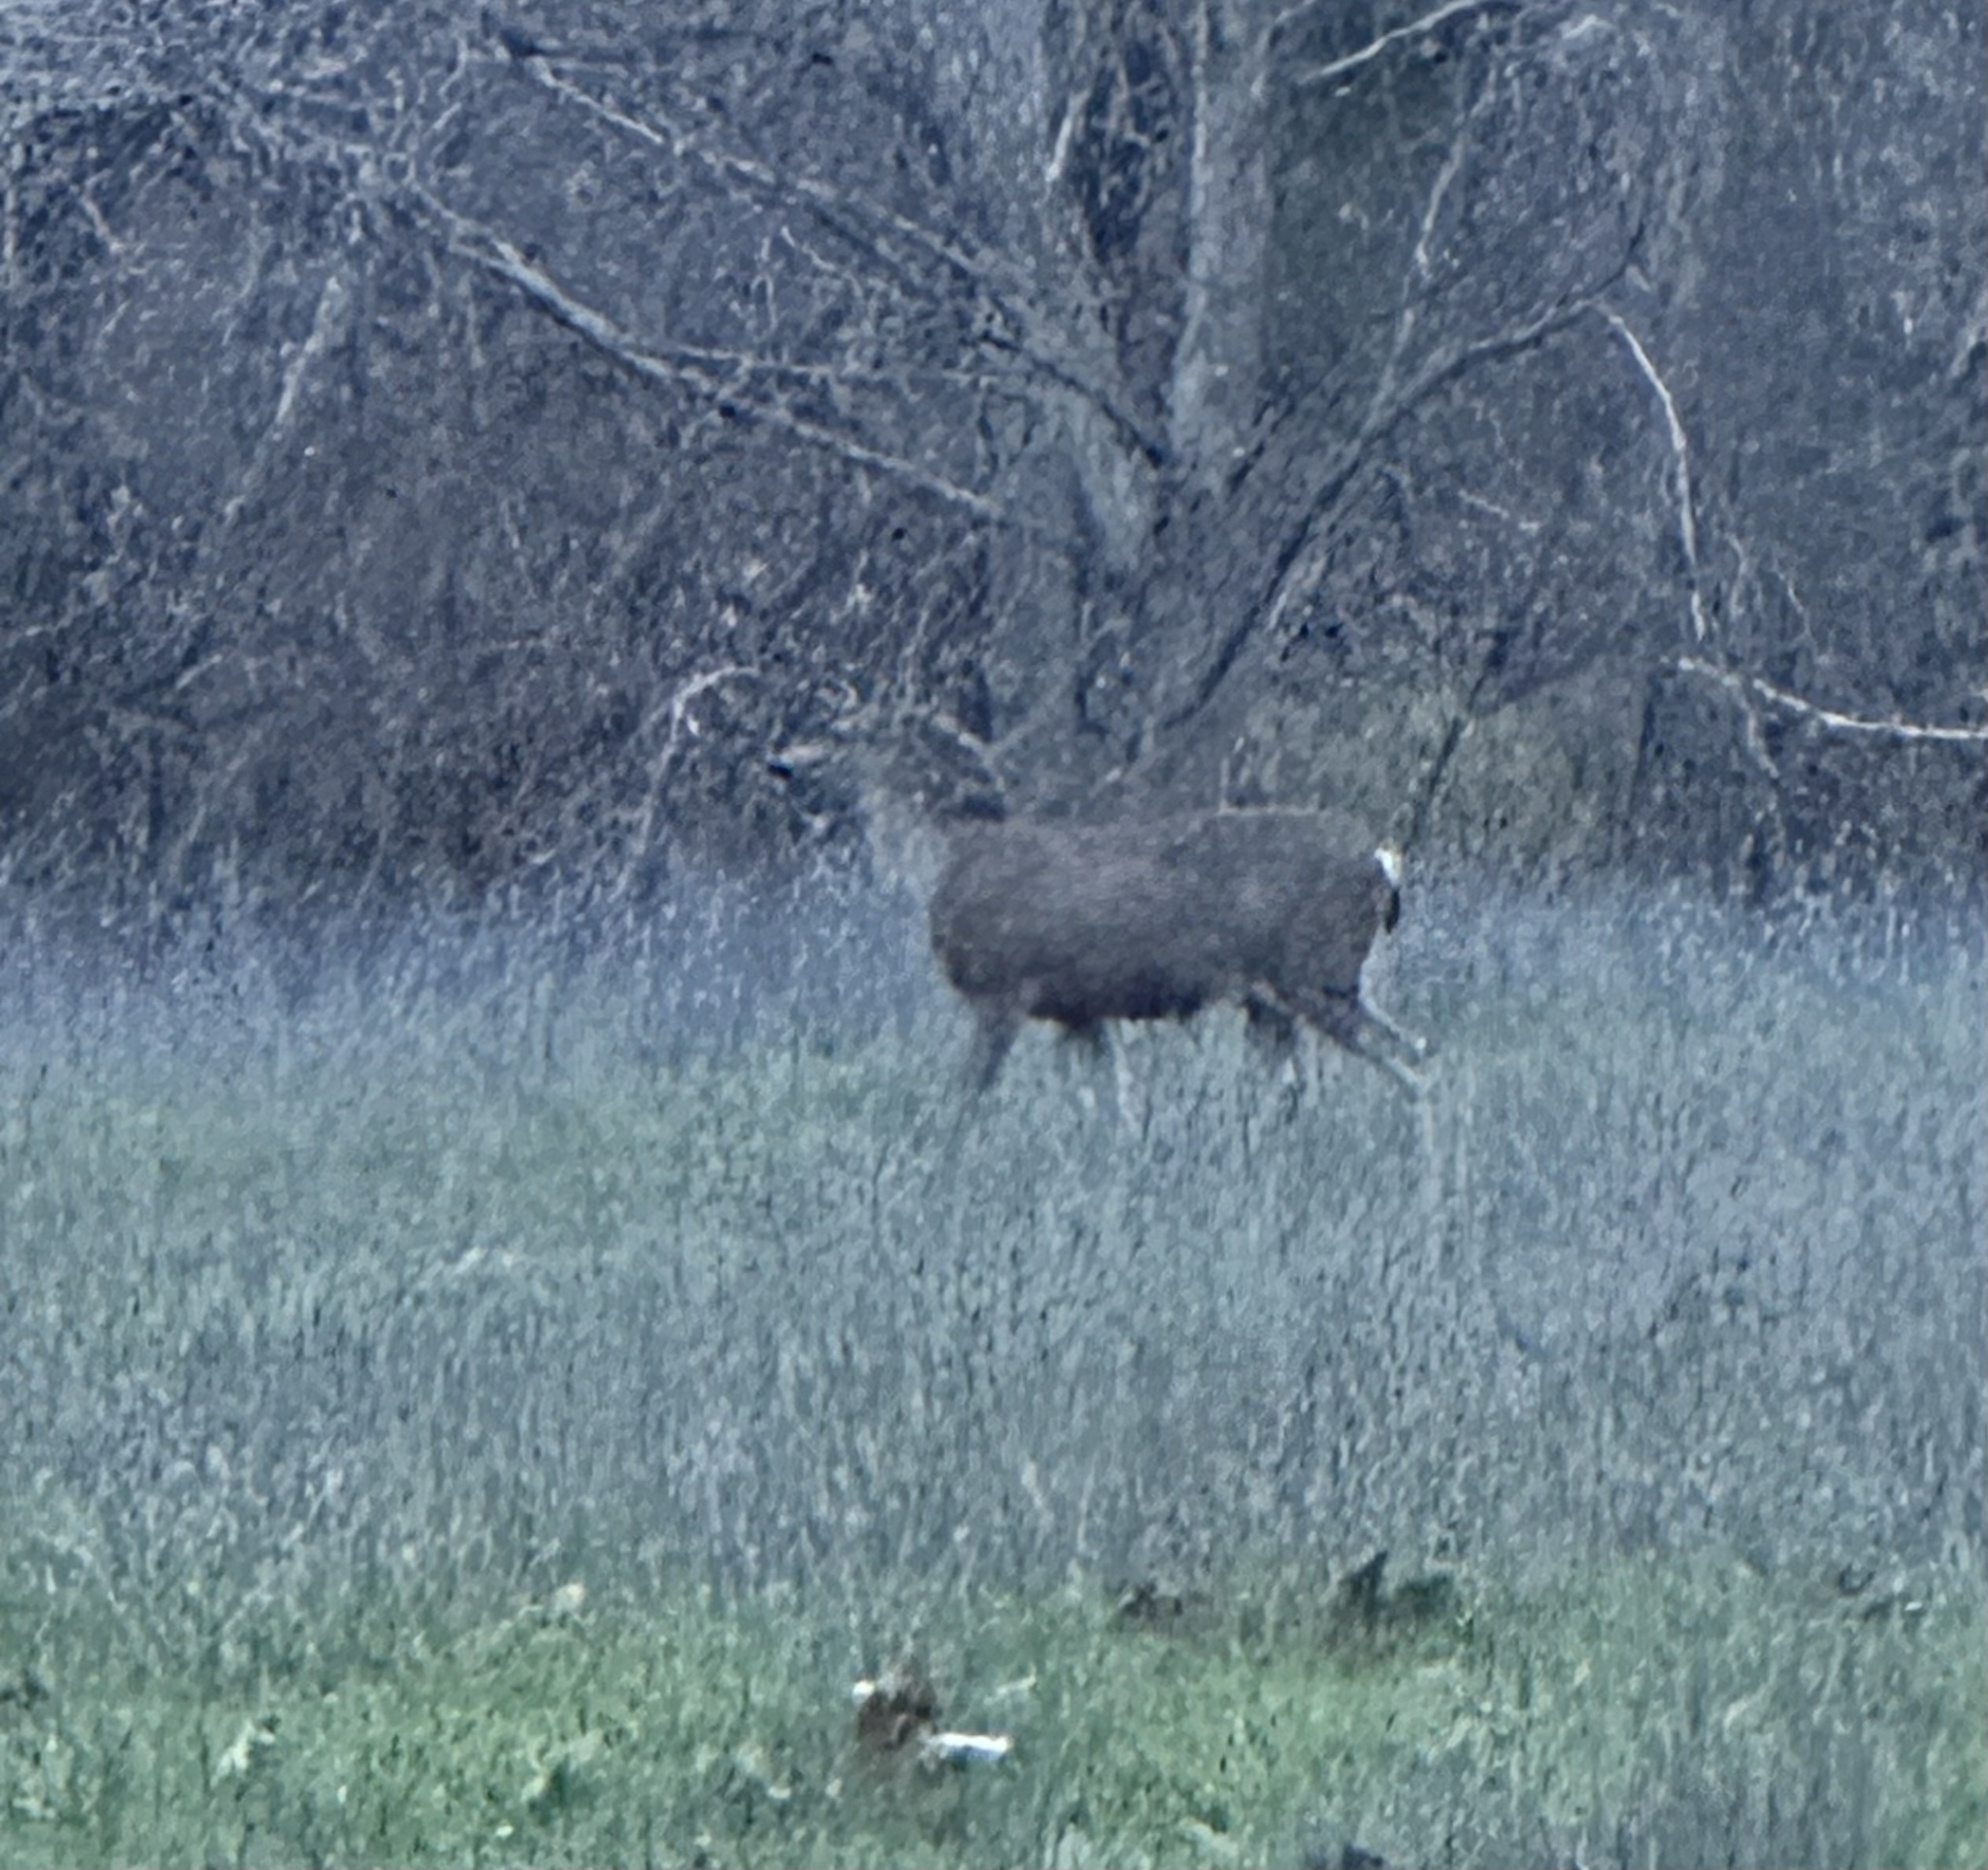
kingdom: Animalia
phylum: Chordata
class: Mammalia
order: Artiodactyla
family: Cervidae
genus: Odocoileus
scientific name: Odocoileus hemionus
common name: Mule deer
